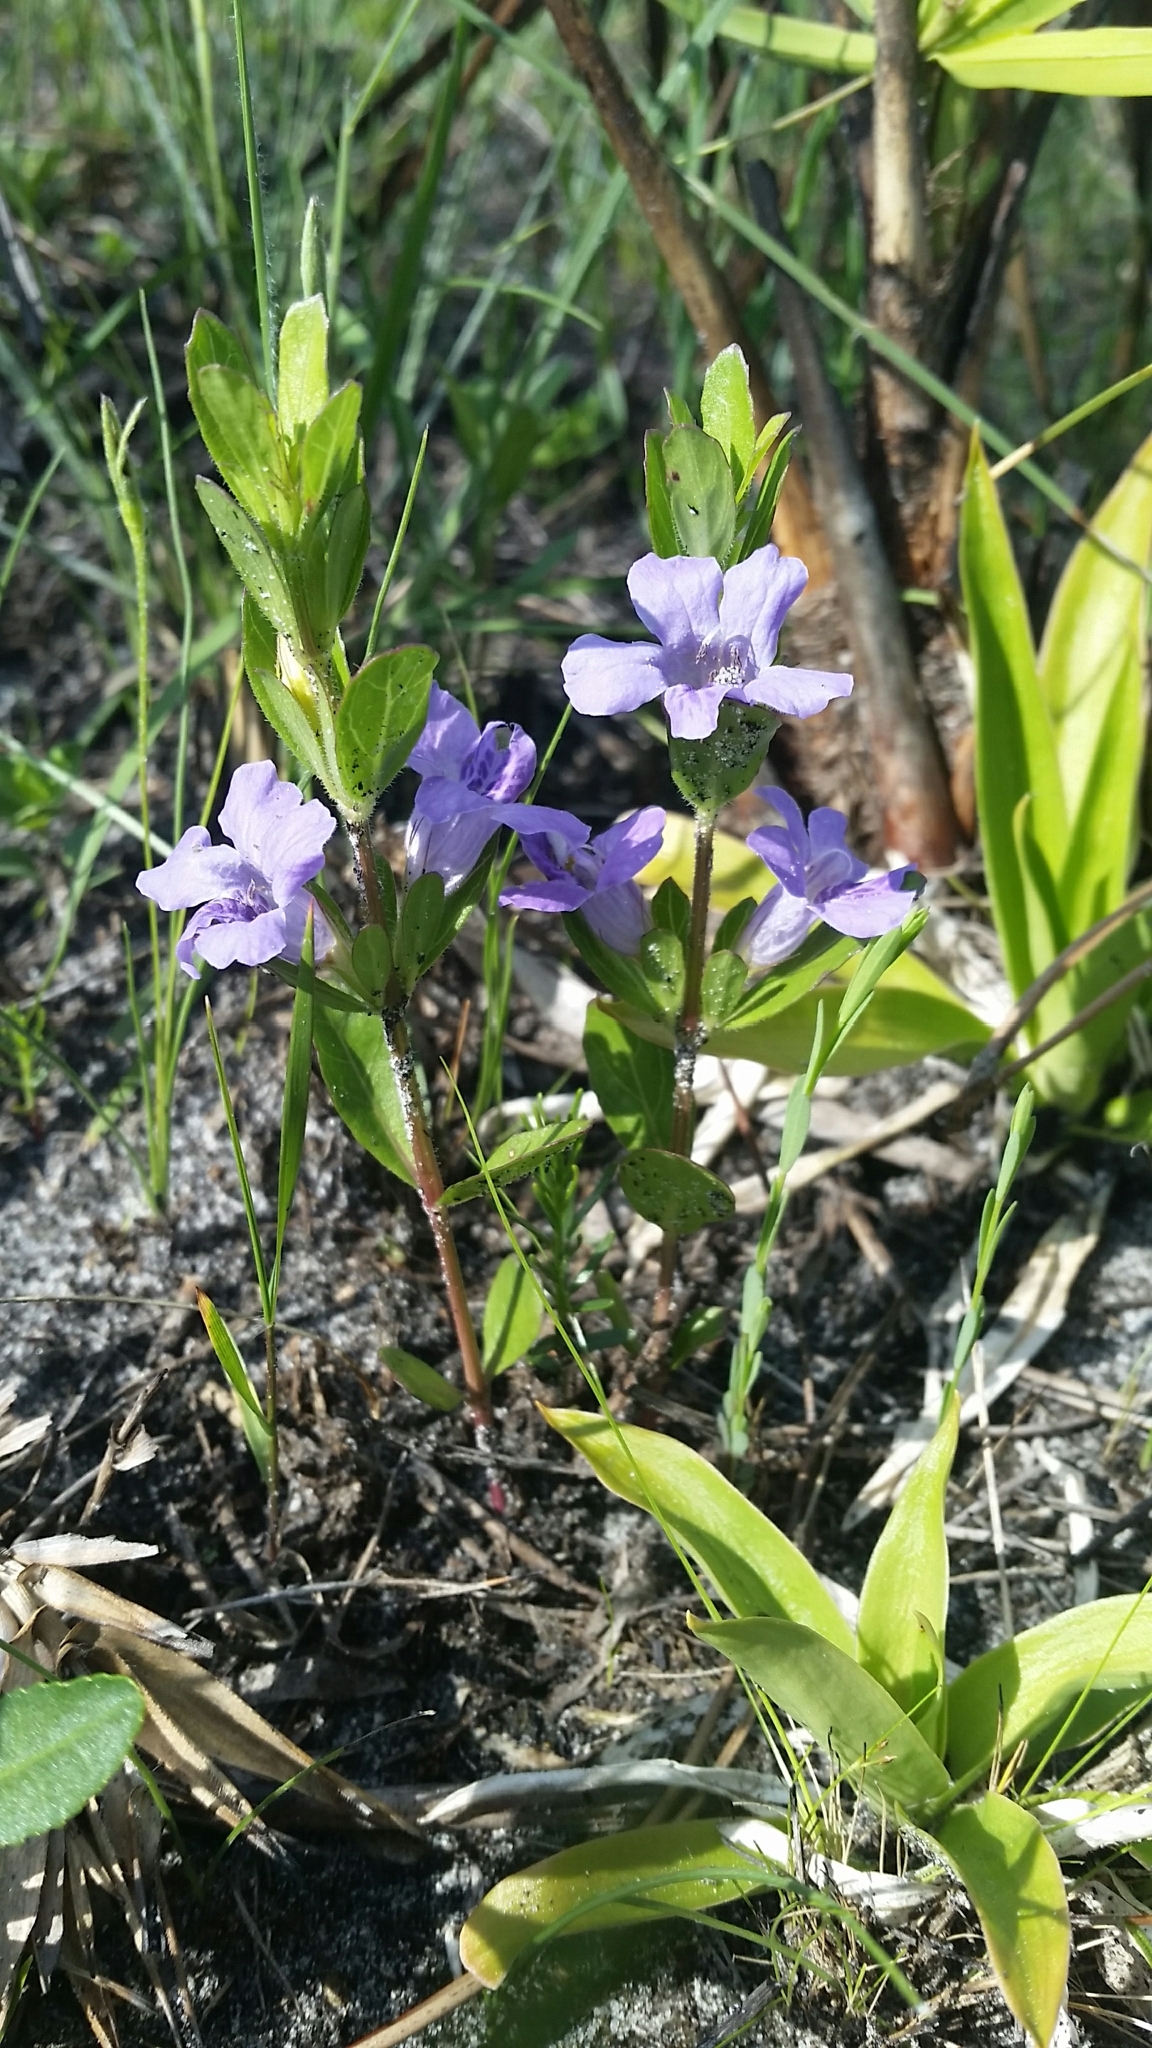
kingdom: Plantae
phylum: Tracheophyta
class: Magnoliopsida
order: Lamiales
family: Acanthaceae
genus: Dyschoriste
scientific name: Dyschoriste oblongifolia
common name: Blue twinflower
